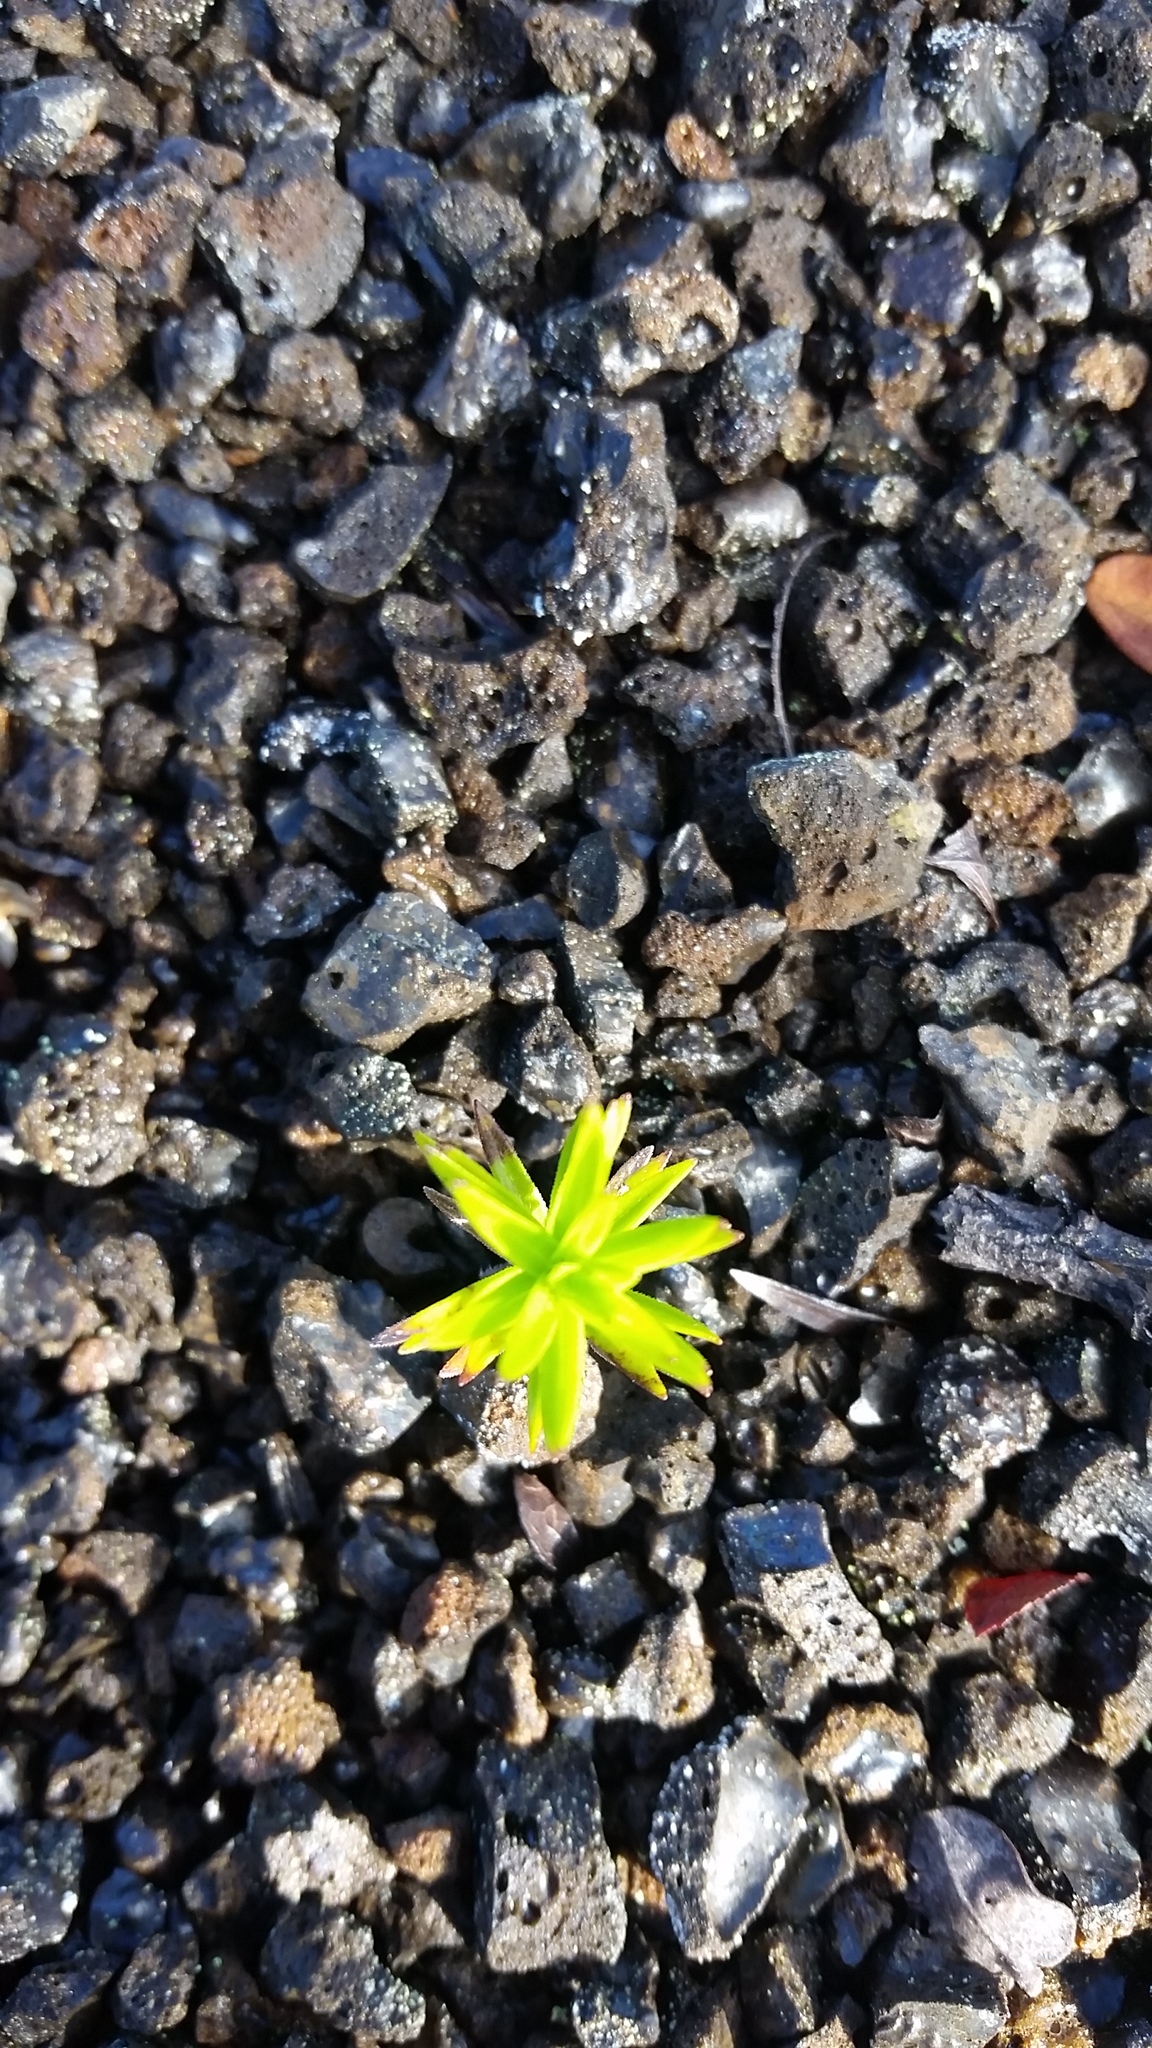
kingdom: Plantae
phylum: Tracheophyta
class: Magnoliopsida
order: Asterales
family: Asteraceae
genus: Dubautia
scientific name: Dubautia ciliolata
